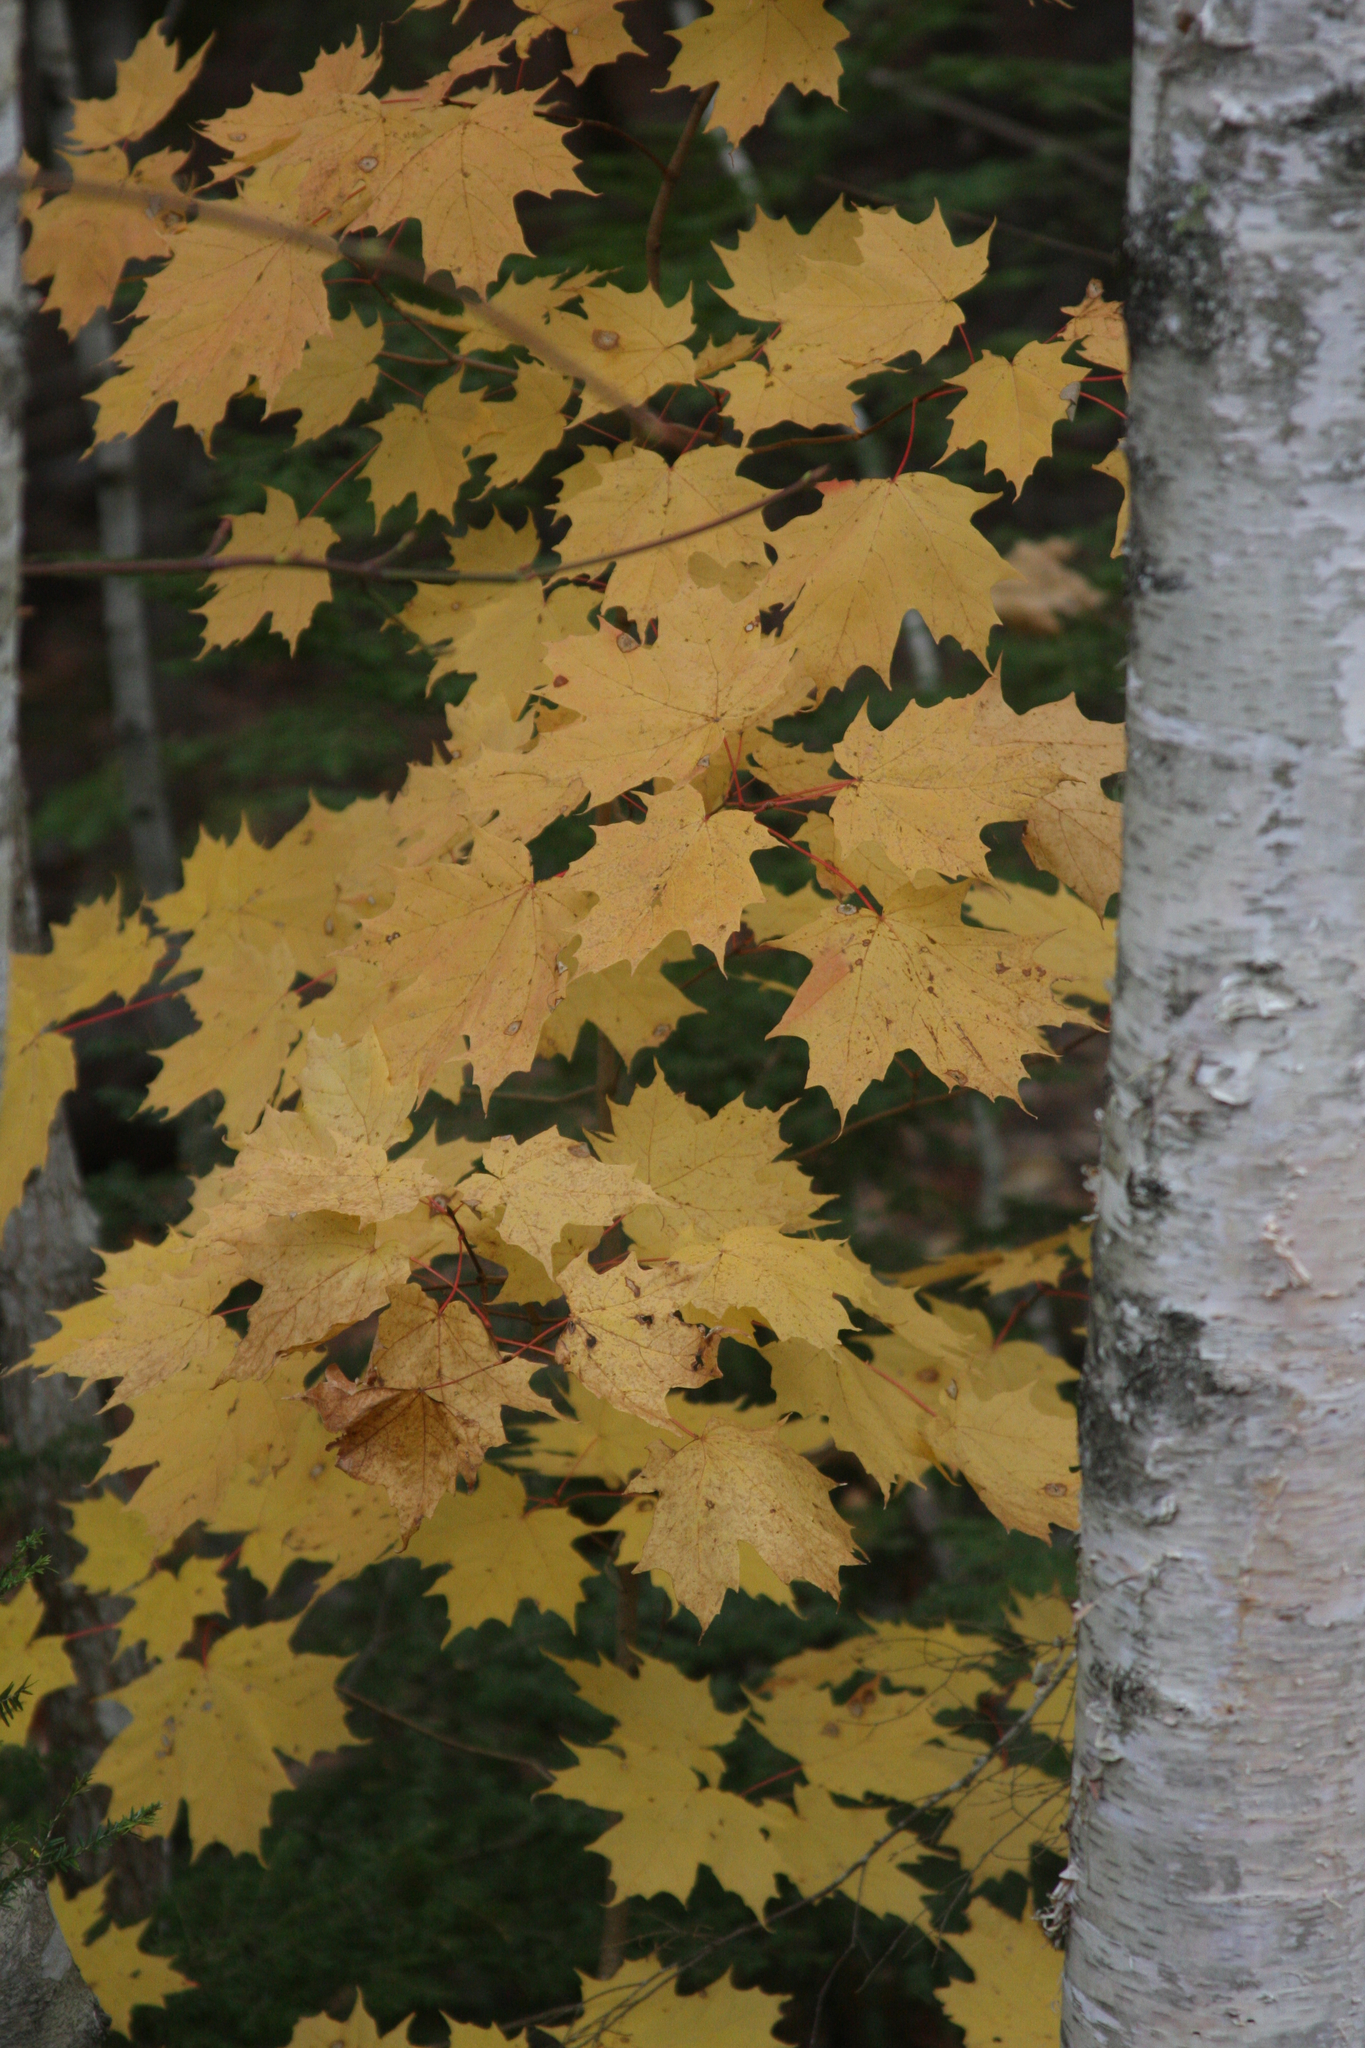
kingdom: Plantae
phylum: Tracheophyta
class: Magnoliopsida
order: Sapindales
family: Sapindaceae
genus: Acer
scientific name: Acer saccharum
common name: Sugar maple
